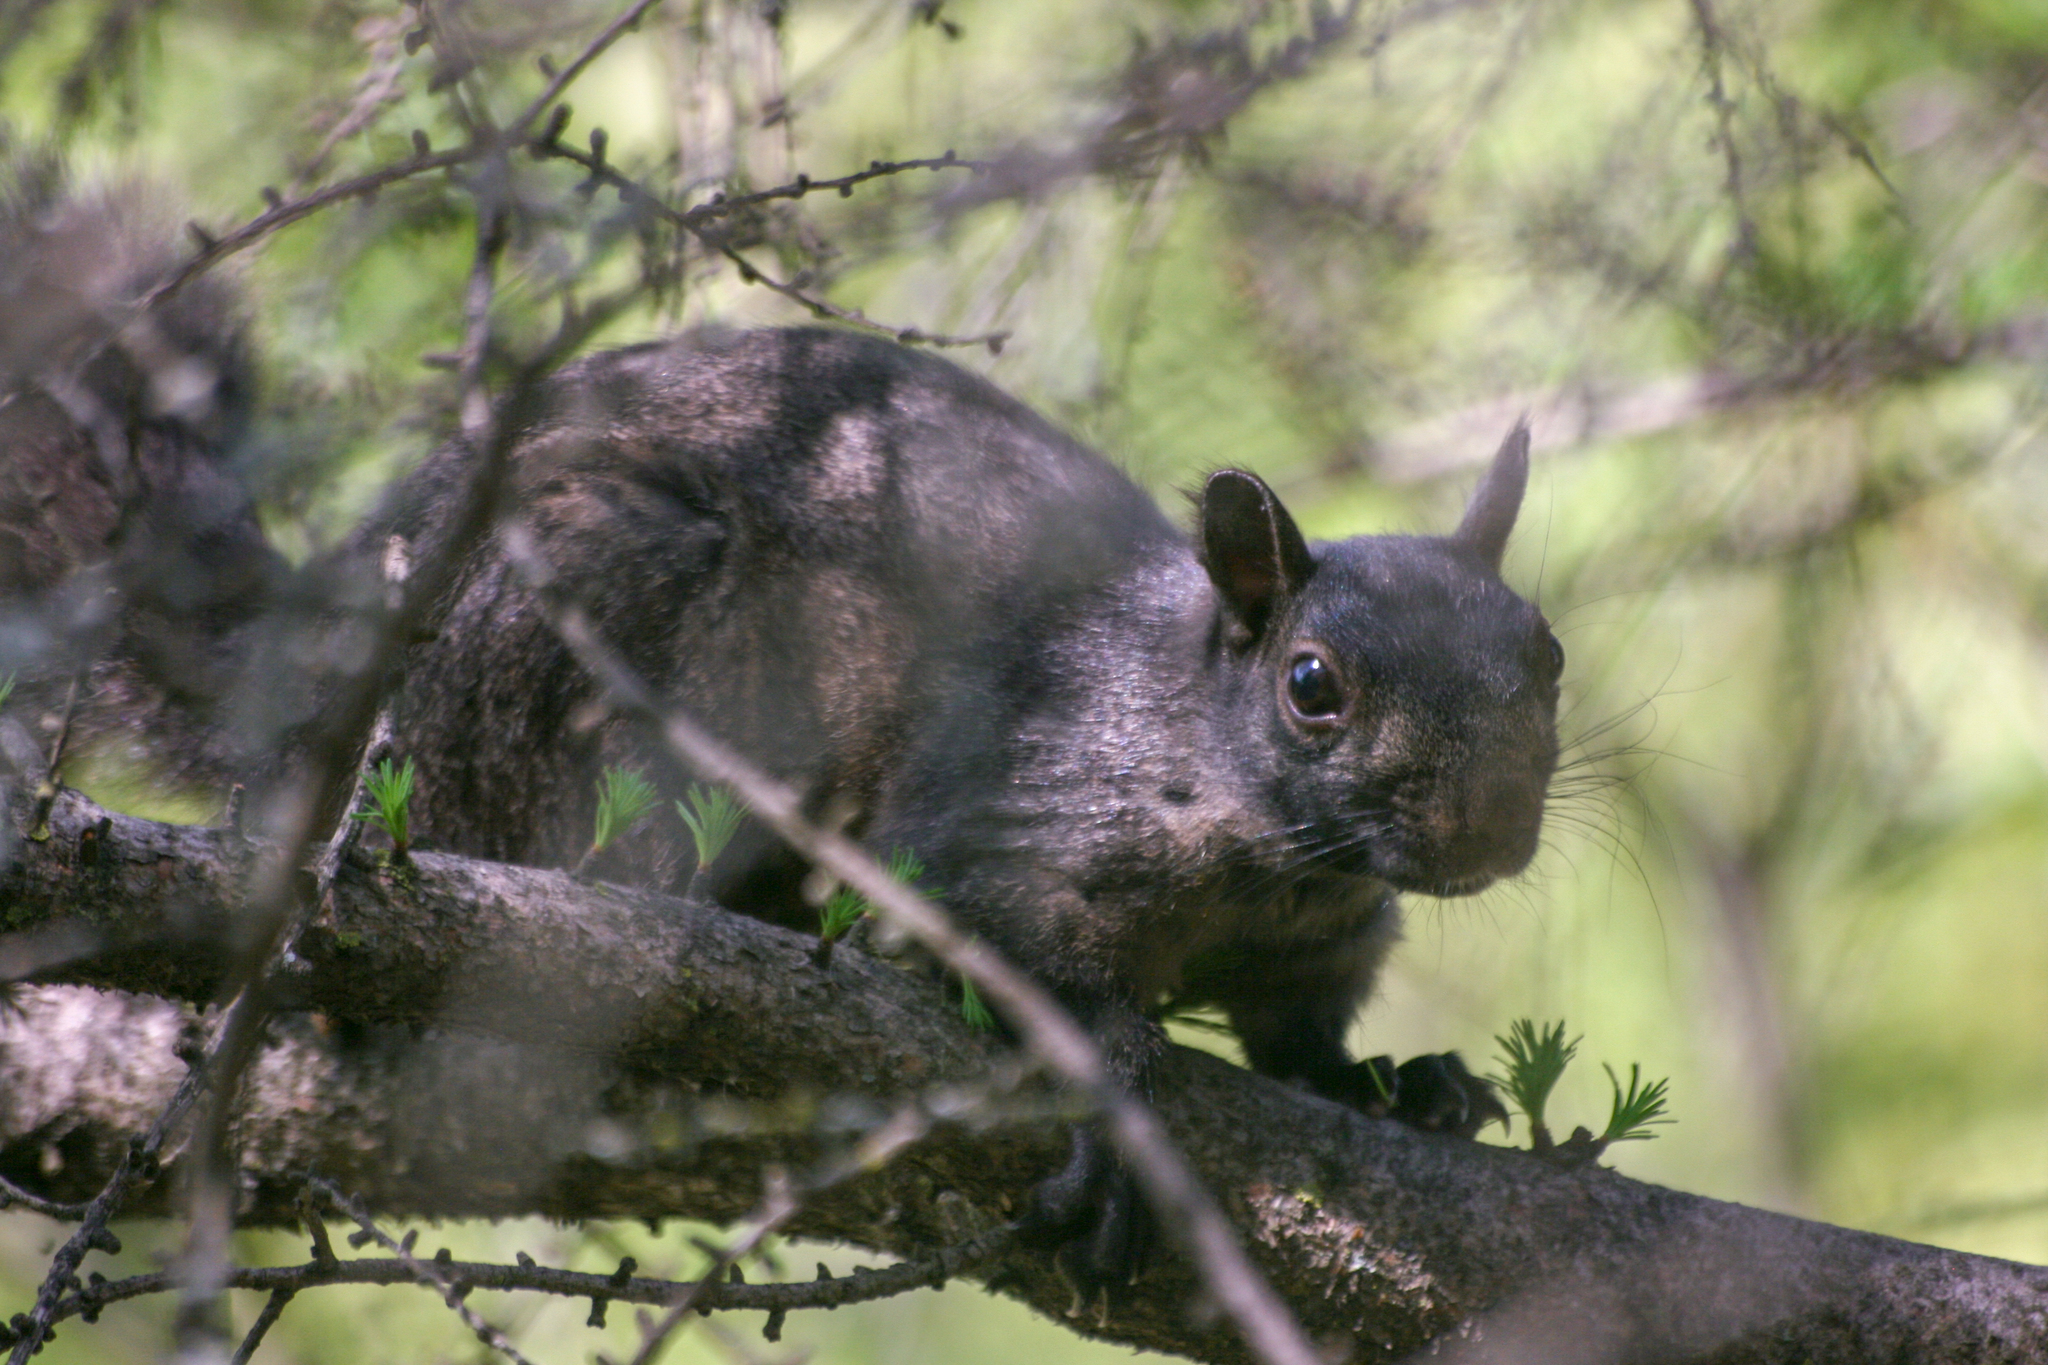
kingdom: Animalia
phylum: Chordata
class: Mammalia
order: Rodentia
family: Sciuridae
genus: Sciurus
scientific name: Sciurus carolinensis
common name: Eastern gray squirrel
